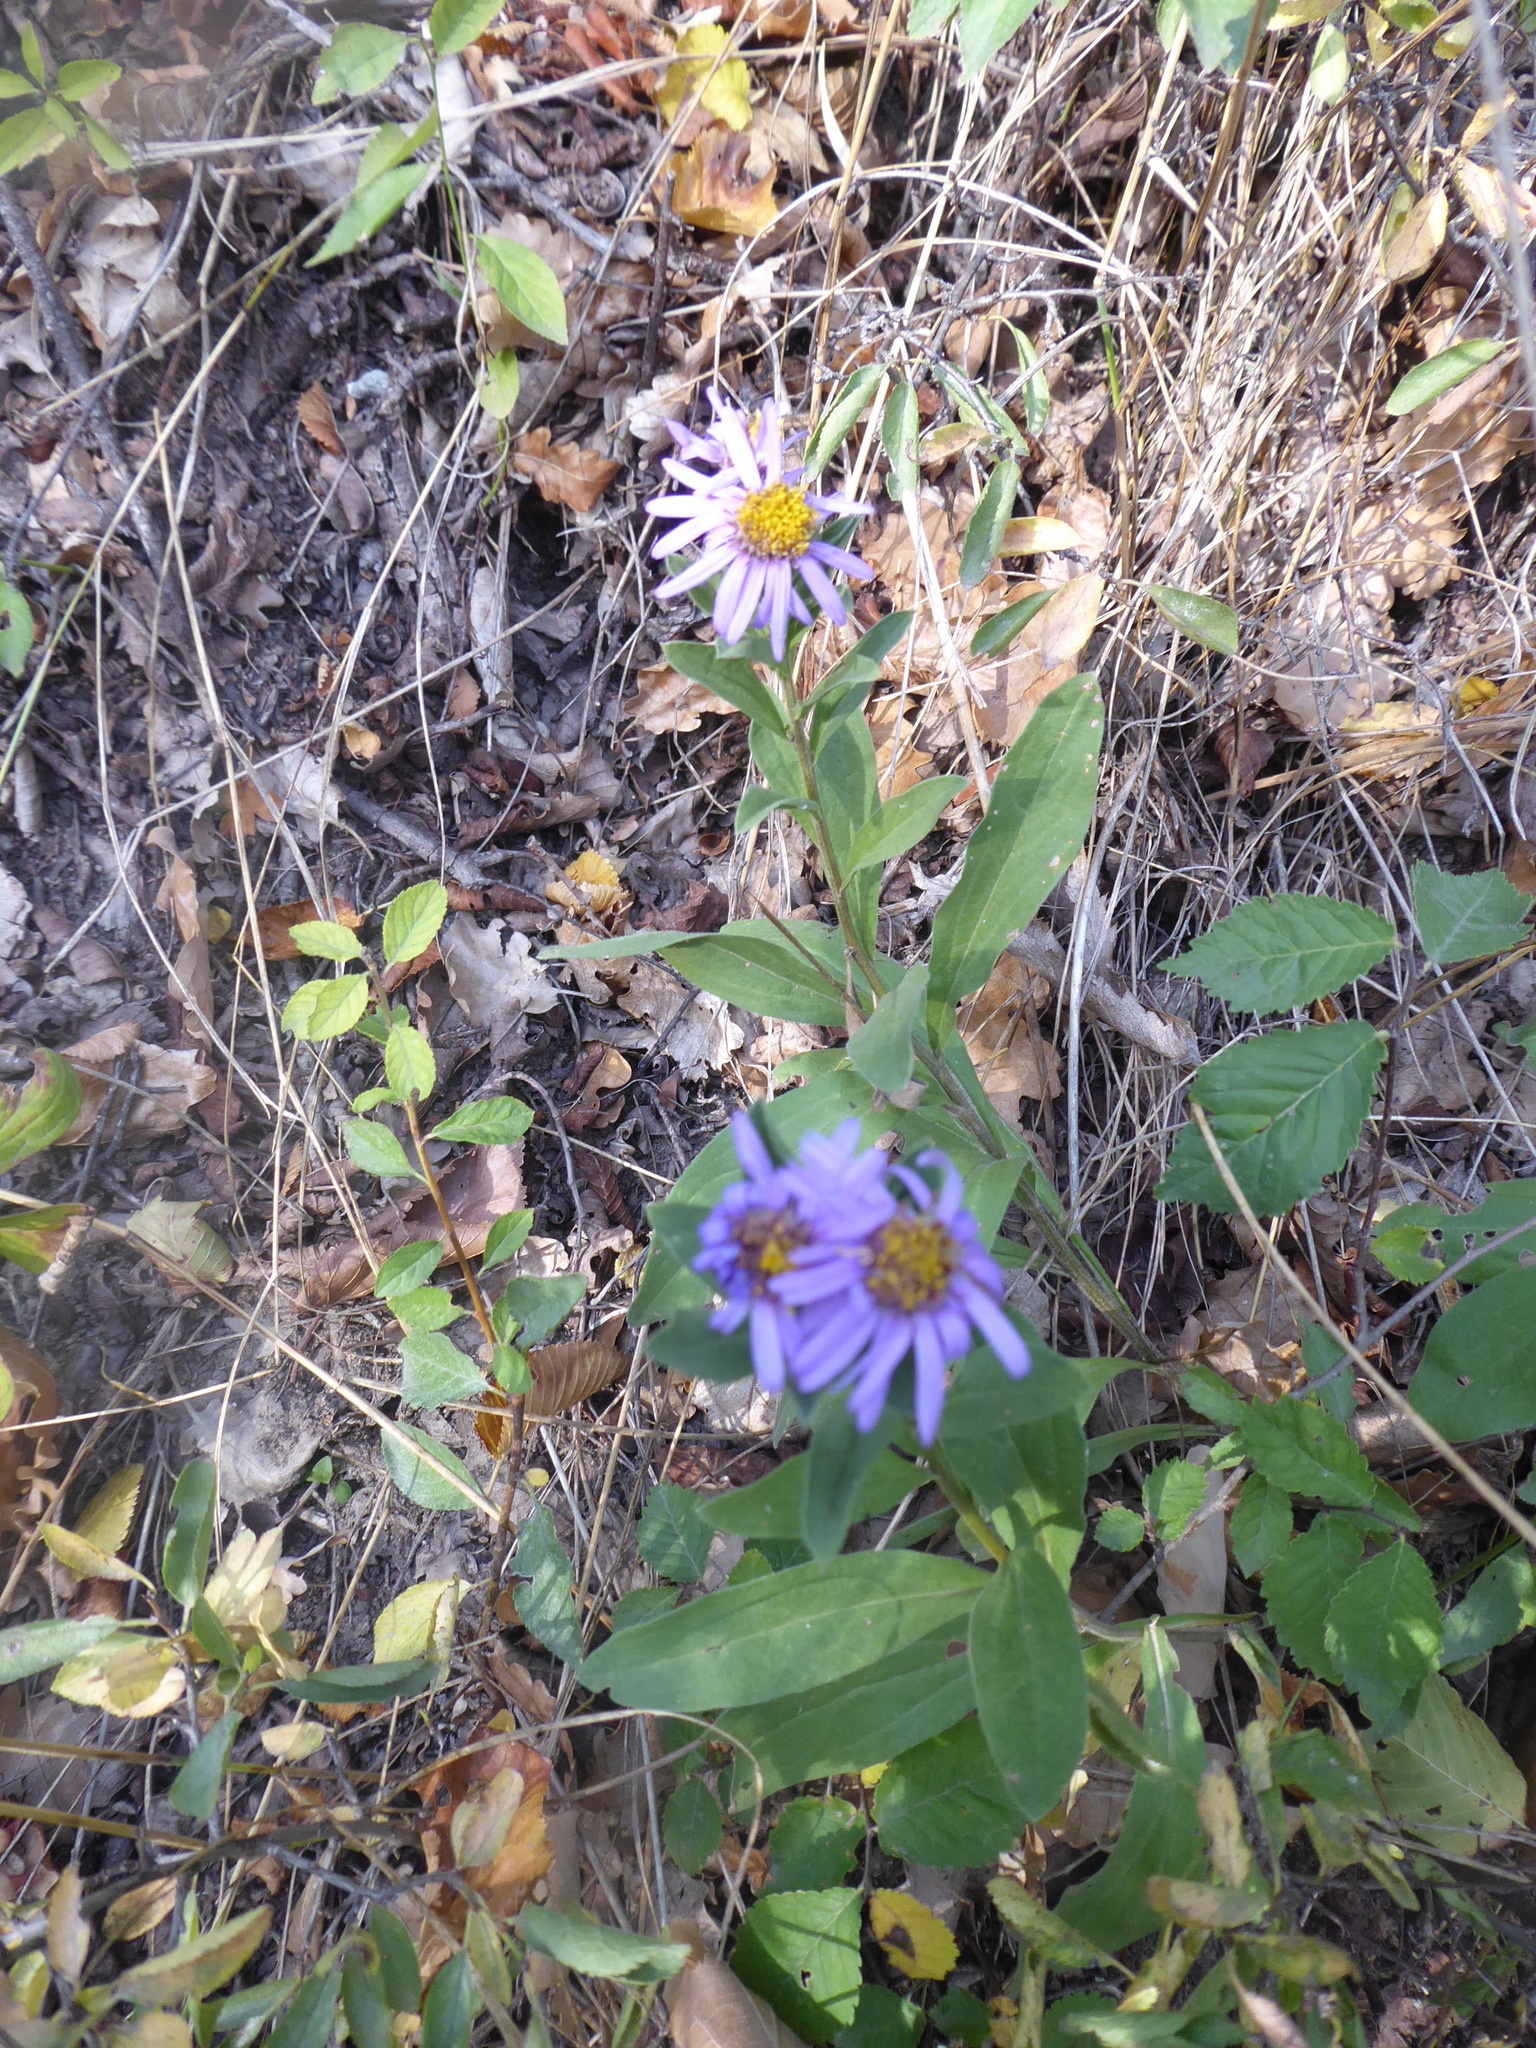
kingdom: Plantae
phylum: Tracheophyta
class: Magnoliopsida
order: Asterales
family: Asteraceae
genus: Aster
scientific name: Aster amellus
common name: European michaelmas daisy
